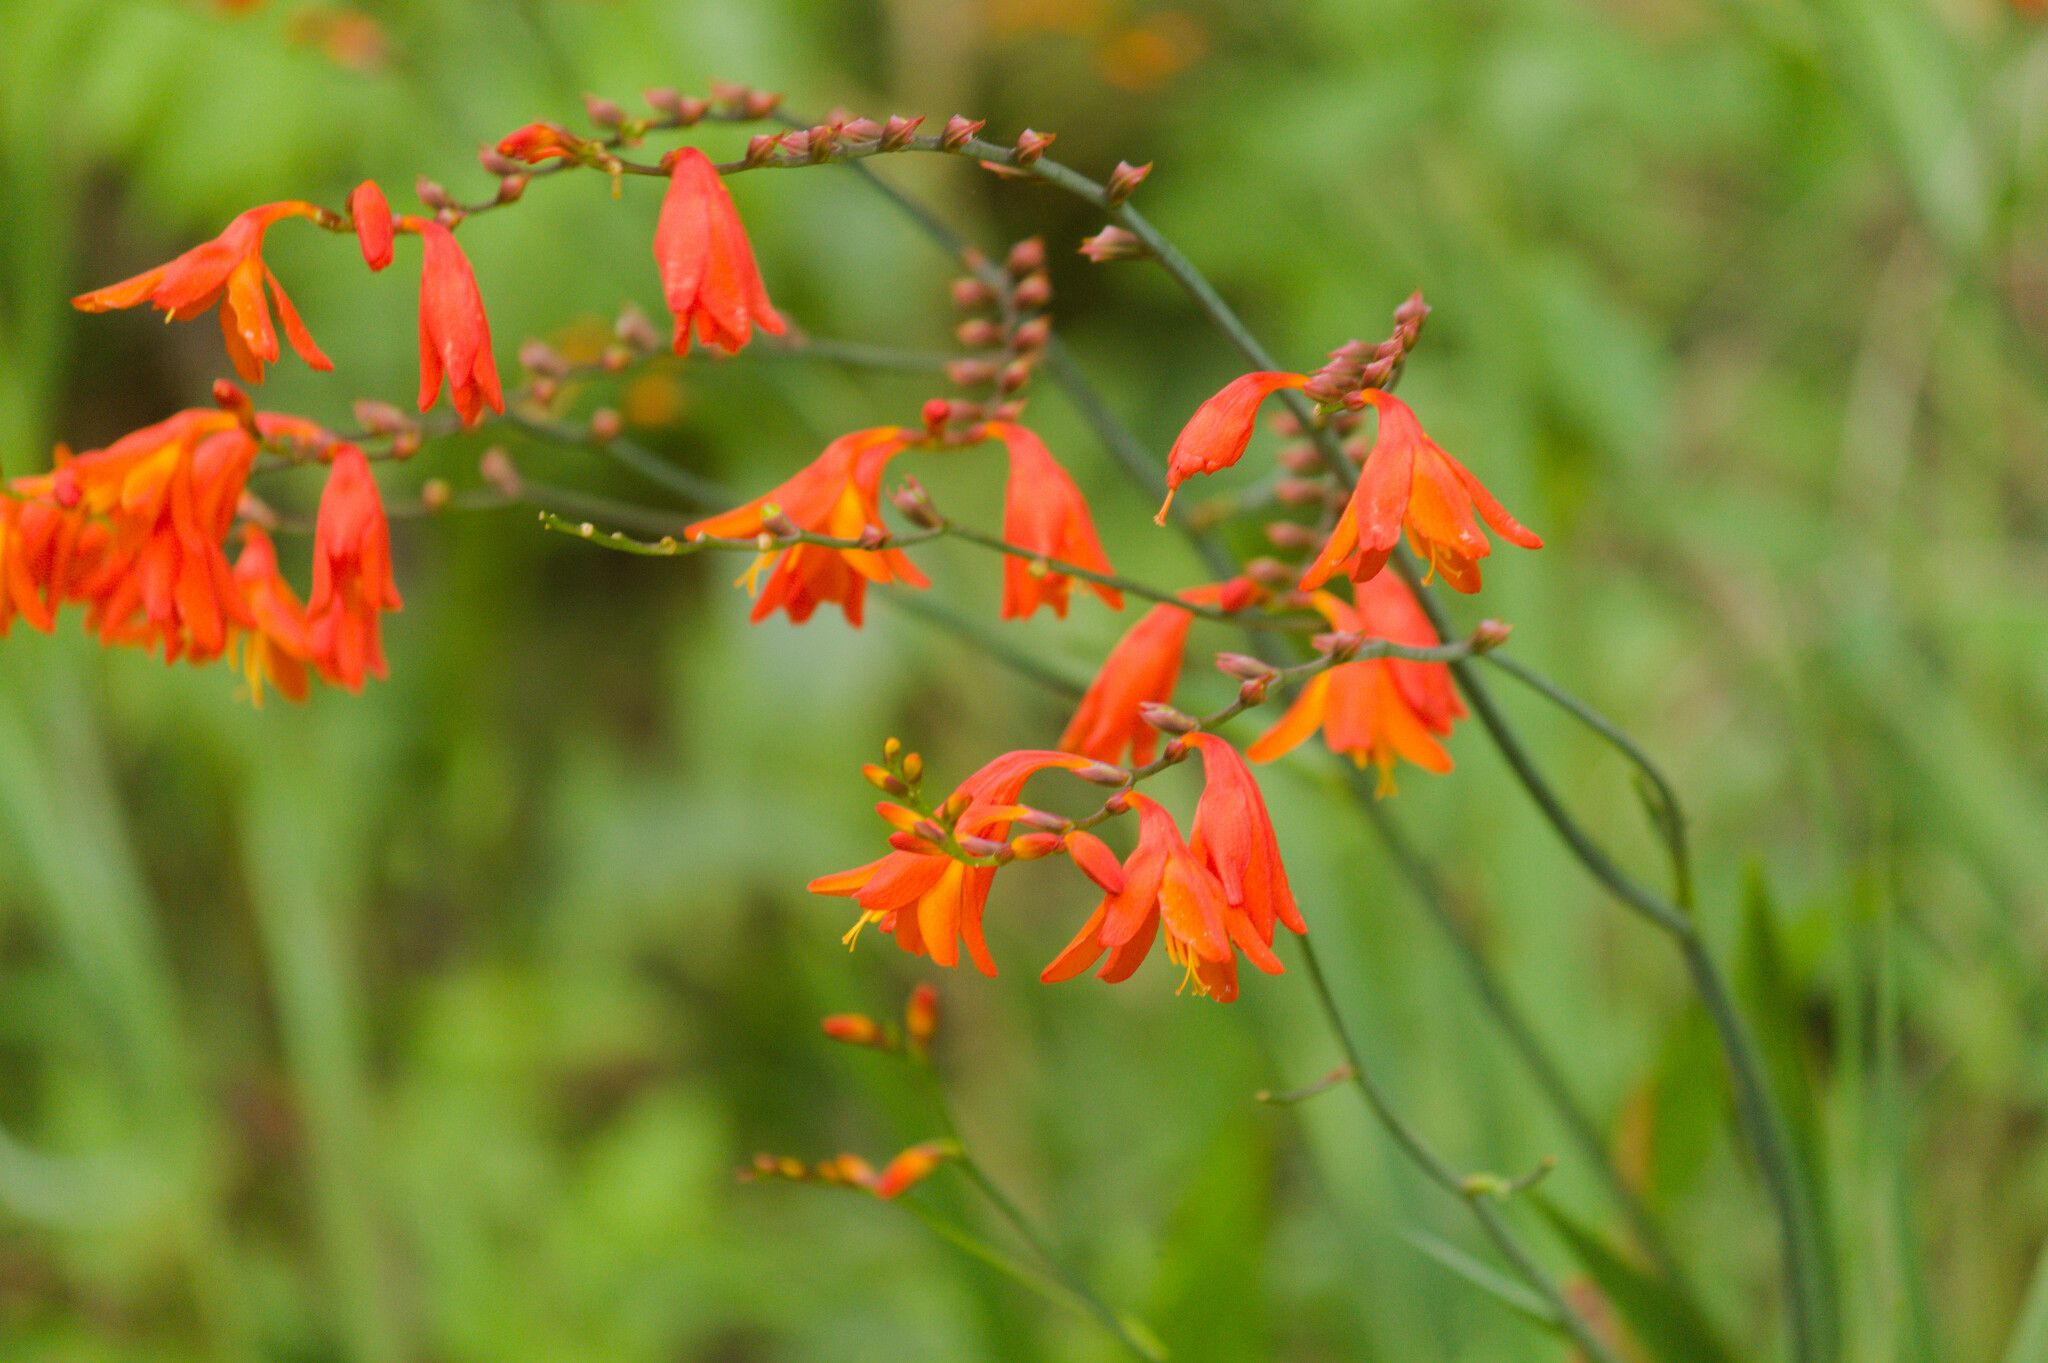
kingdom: Plantae
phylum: Tracheophyta
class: Liliopsida
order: Asparagales
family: Iridaceae
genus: Crocosmia
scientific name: Crocosmia crocosmiiflora
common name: Montbretia
